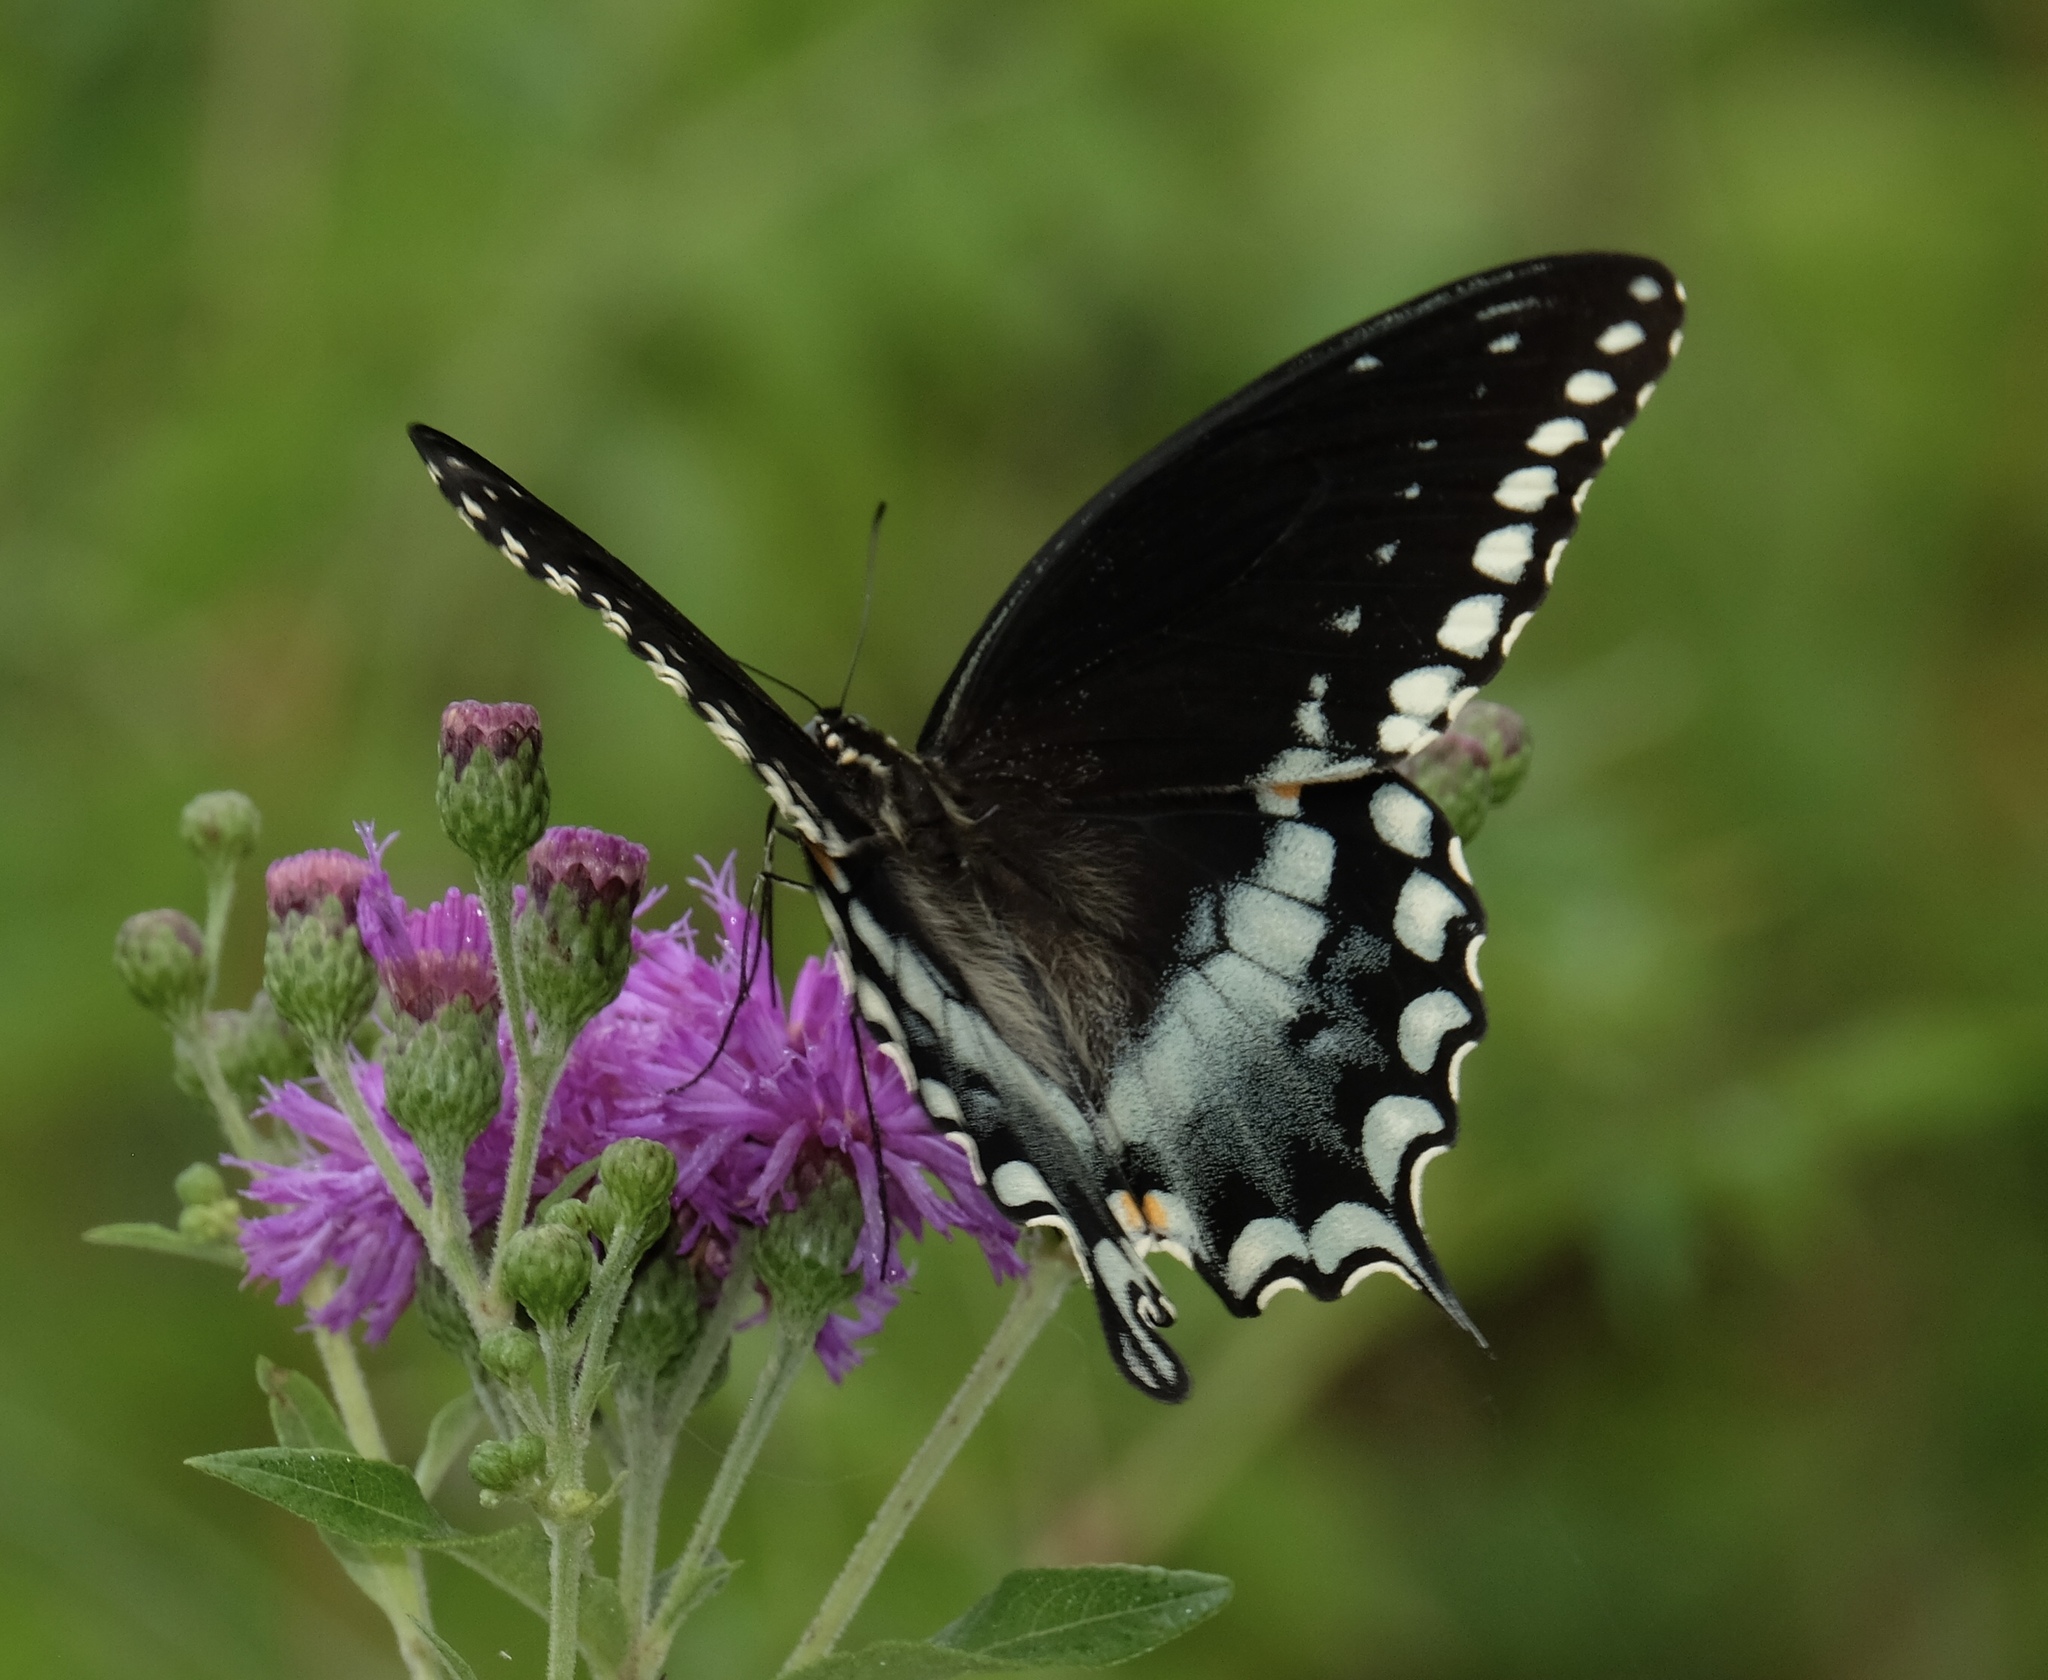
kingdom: Animalia
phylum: Arthropoda
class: Insecta
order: Lepidoptera
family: Papilionidae
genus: Papilio
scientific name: Papilio troilus
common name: Spicebush swallowtail
